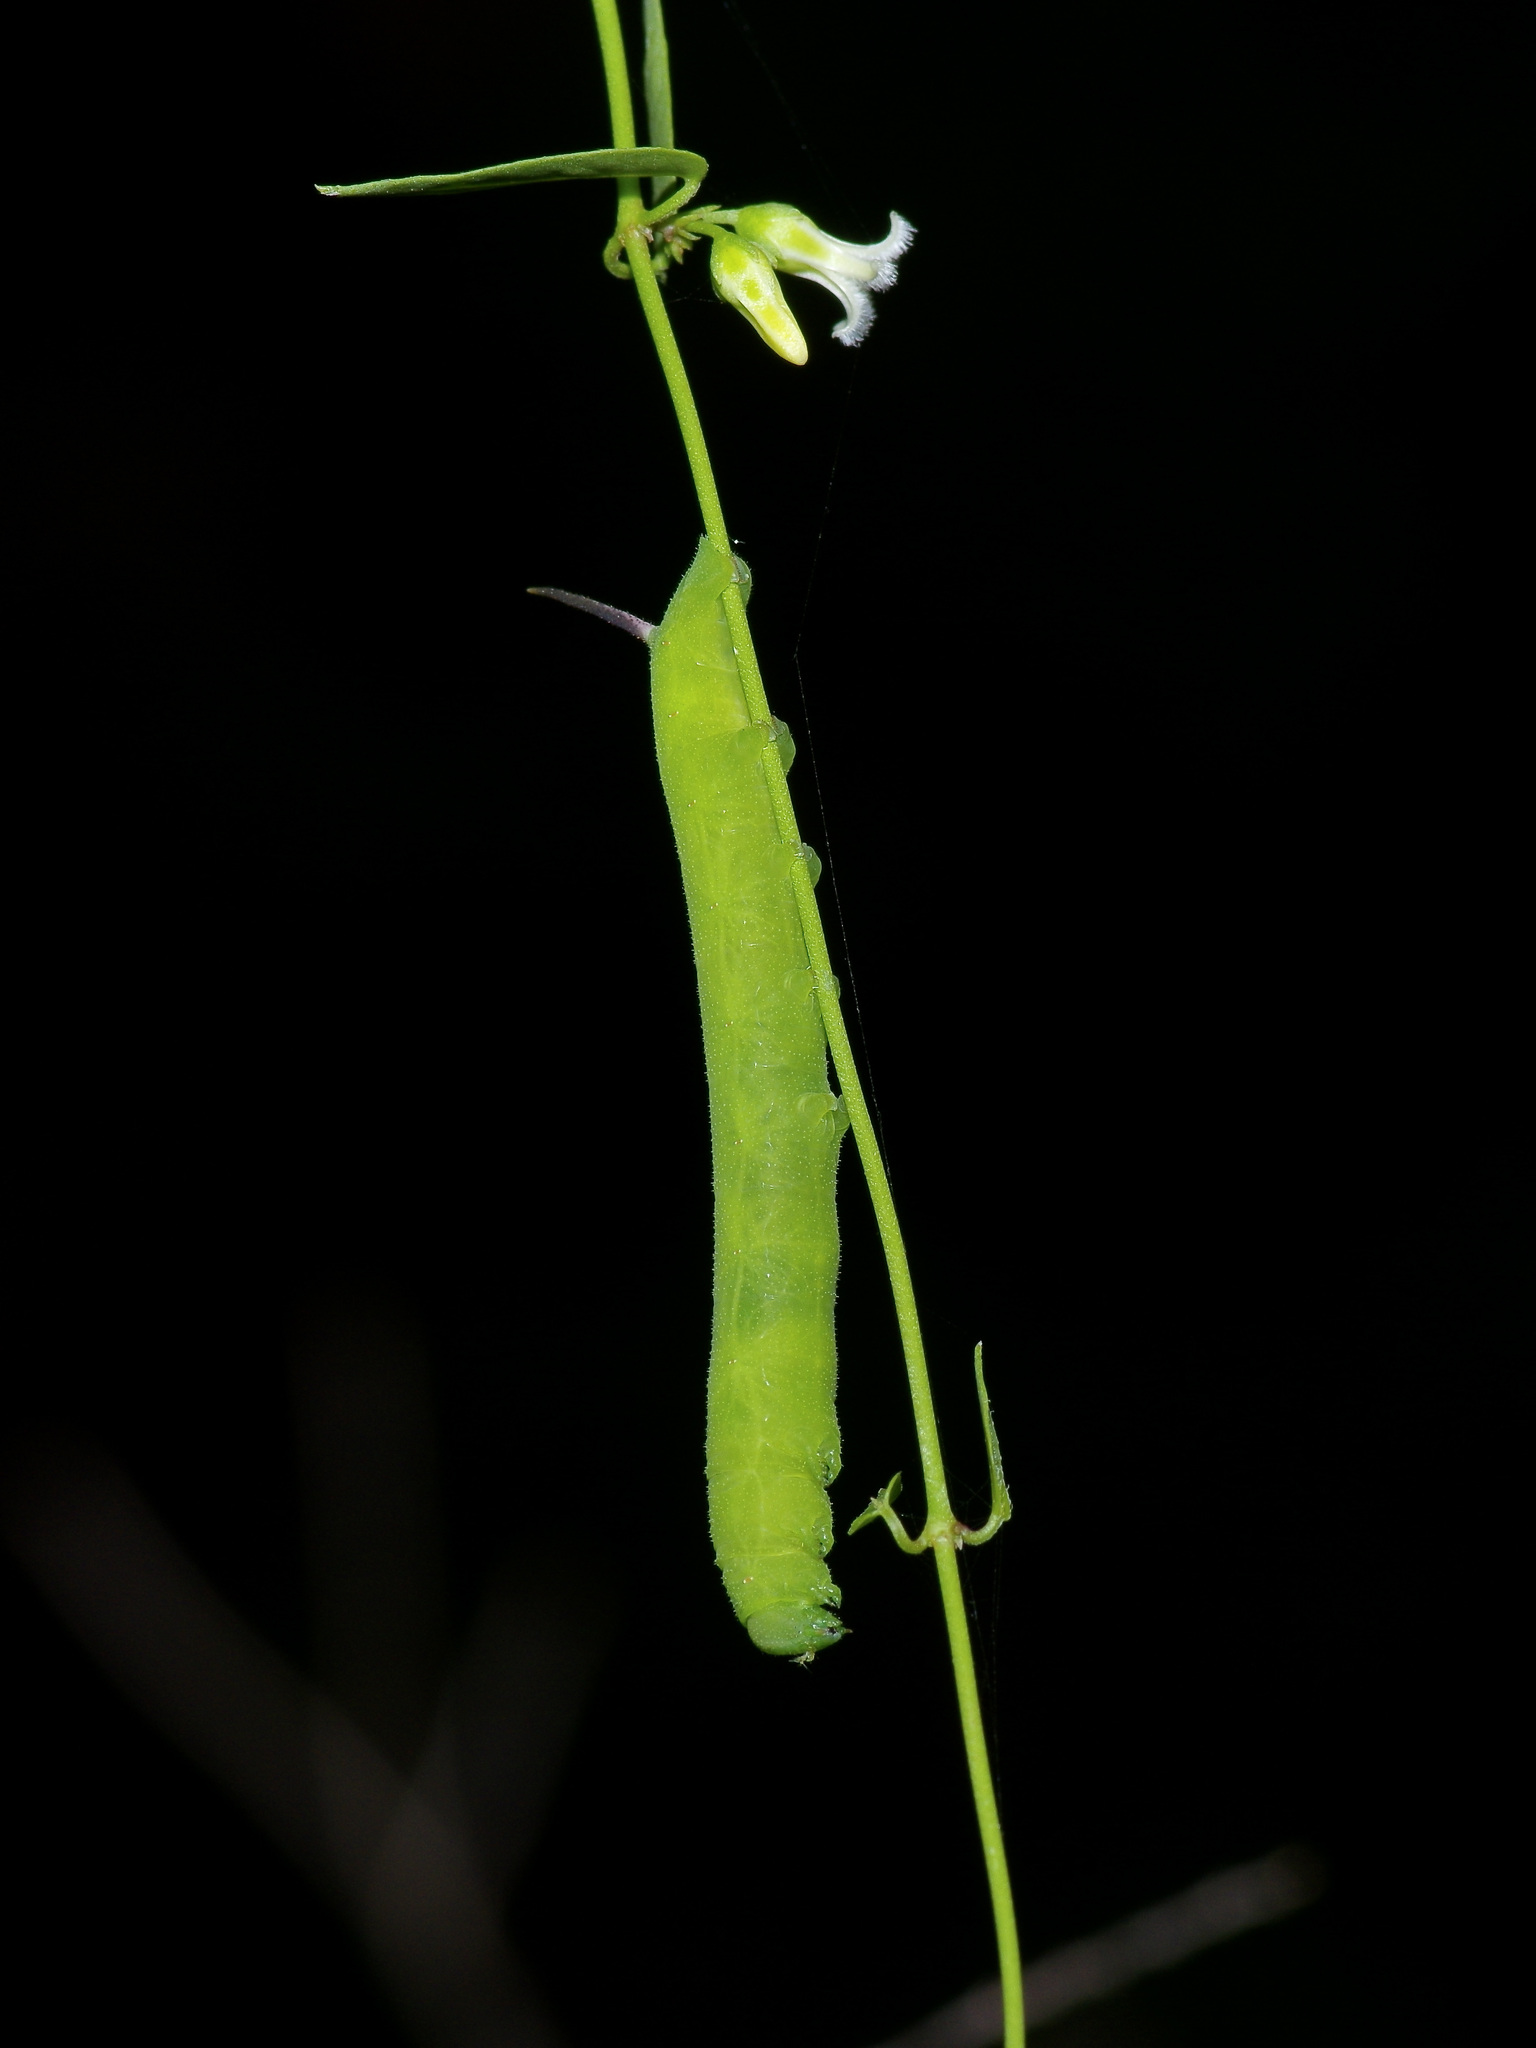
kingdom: Animalia
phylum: Arthropoda
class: Insecta
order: Lepidoptera
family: Sphingidae
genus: Erinnyis
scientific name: Erinnyis obscura
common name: Obscure sphinx
